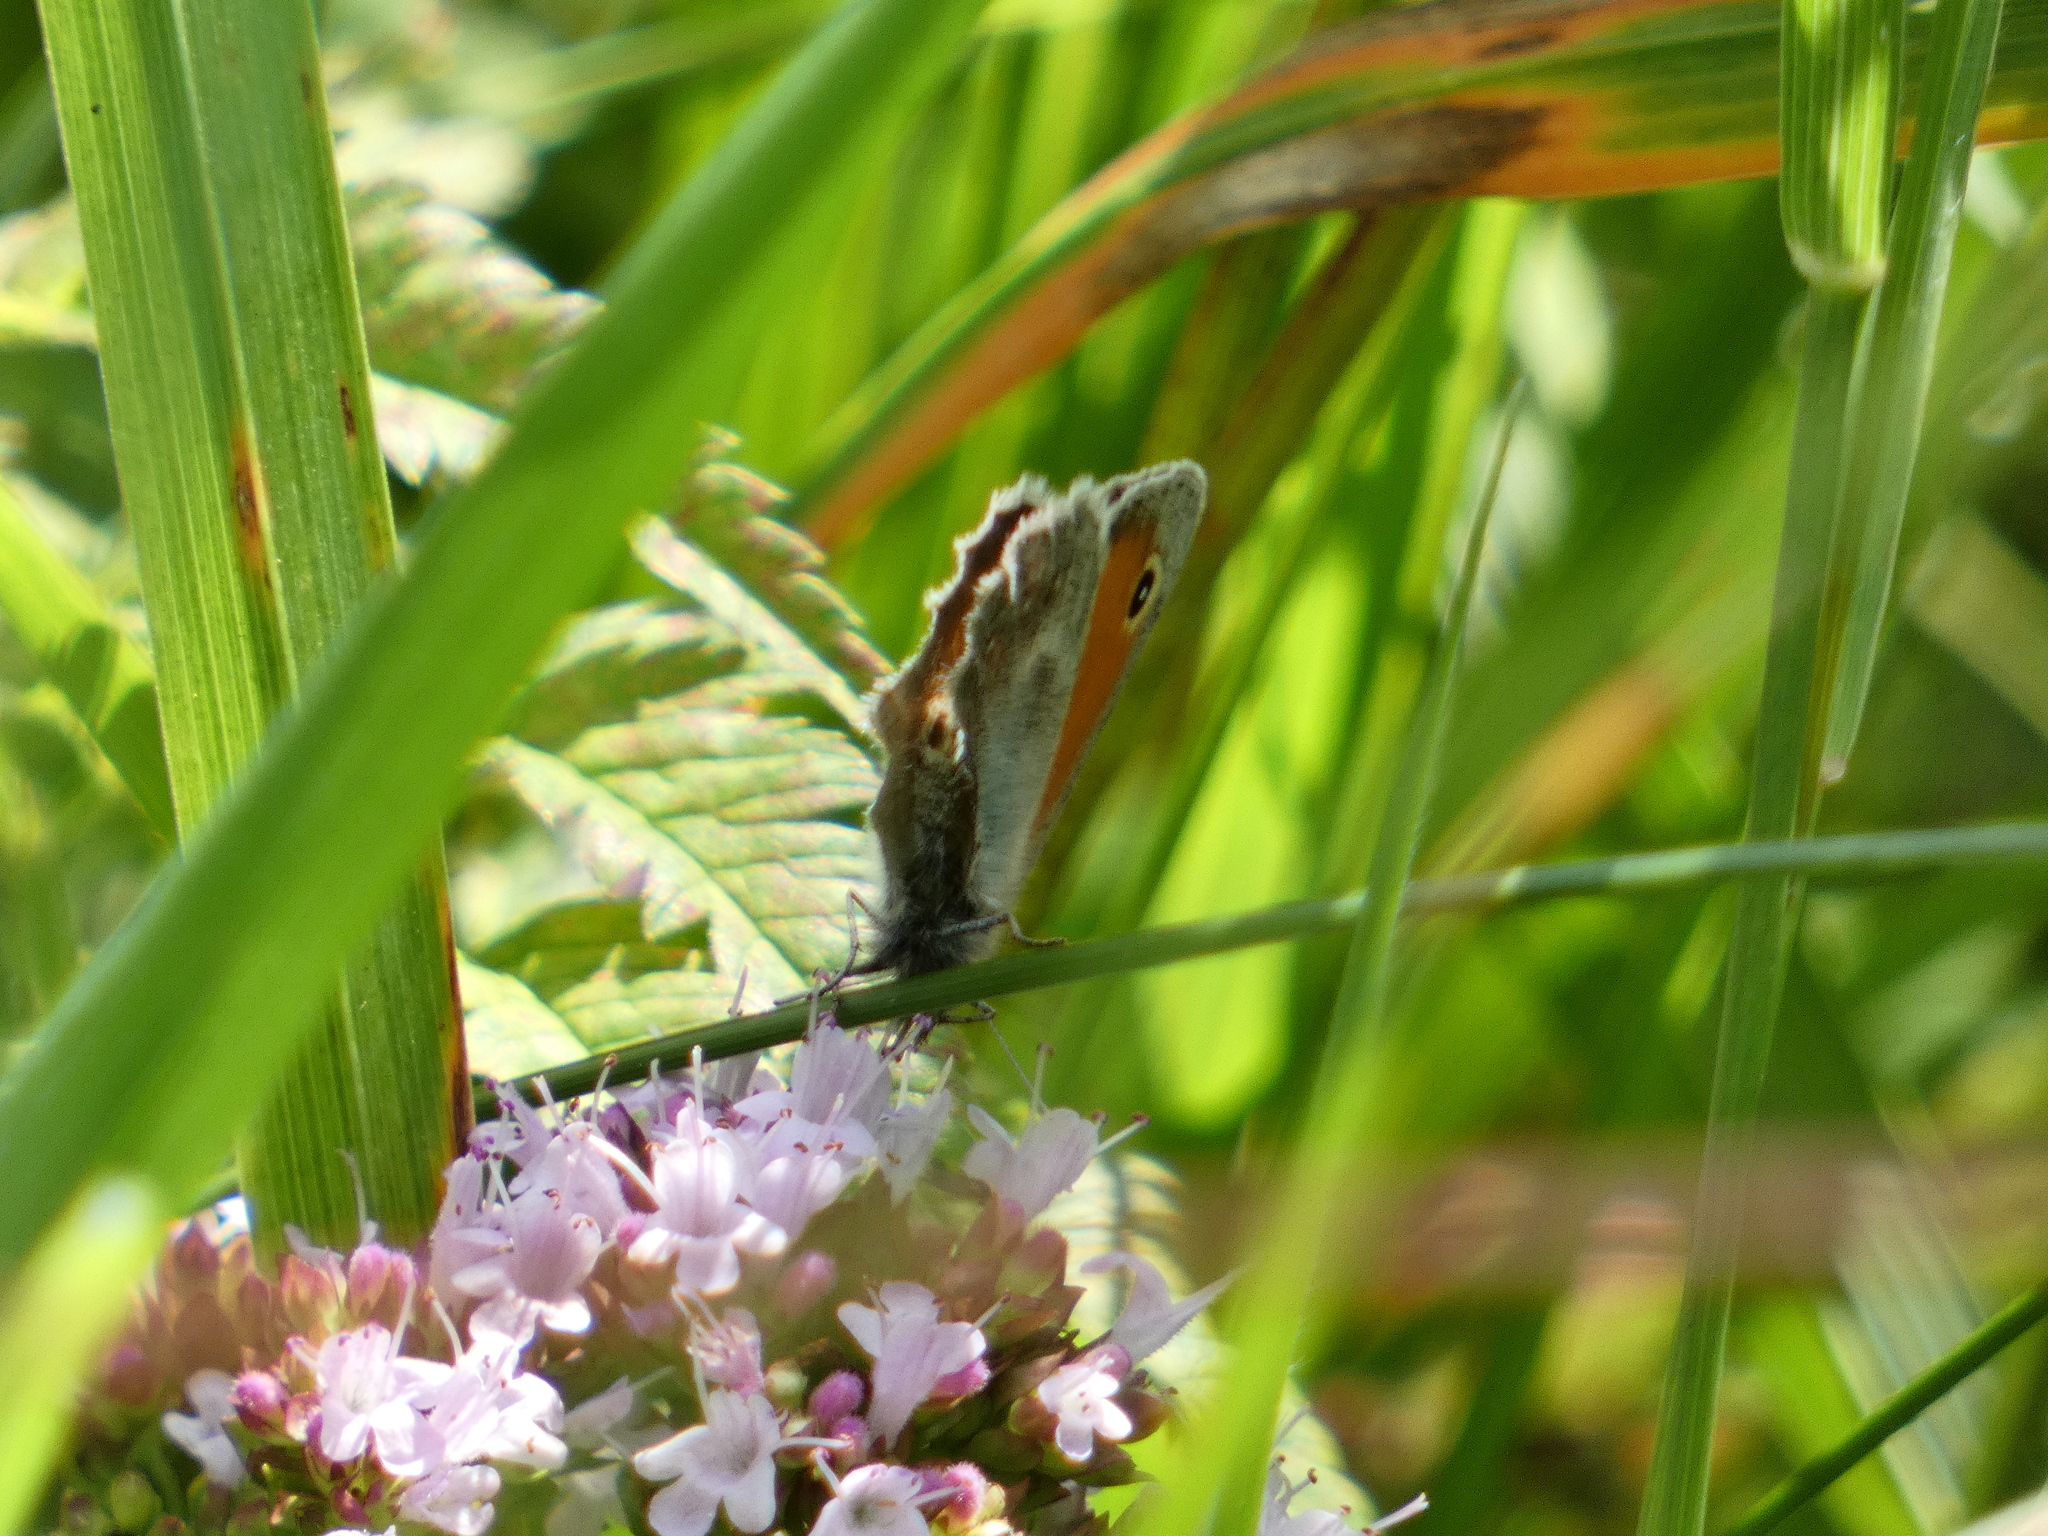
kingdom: Animalia
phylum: Arthropoda
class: Insecta
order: Lepidoptera
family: Nymphalidae
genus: Coenonympha
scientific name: Coenonympha pamphilus
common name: Small heath
